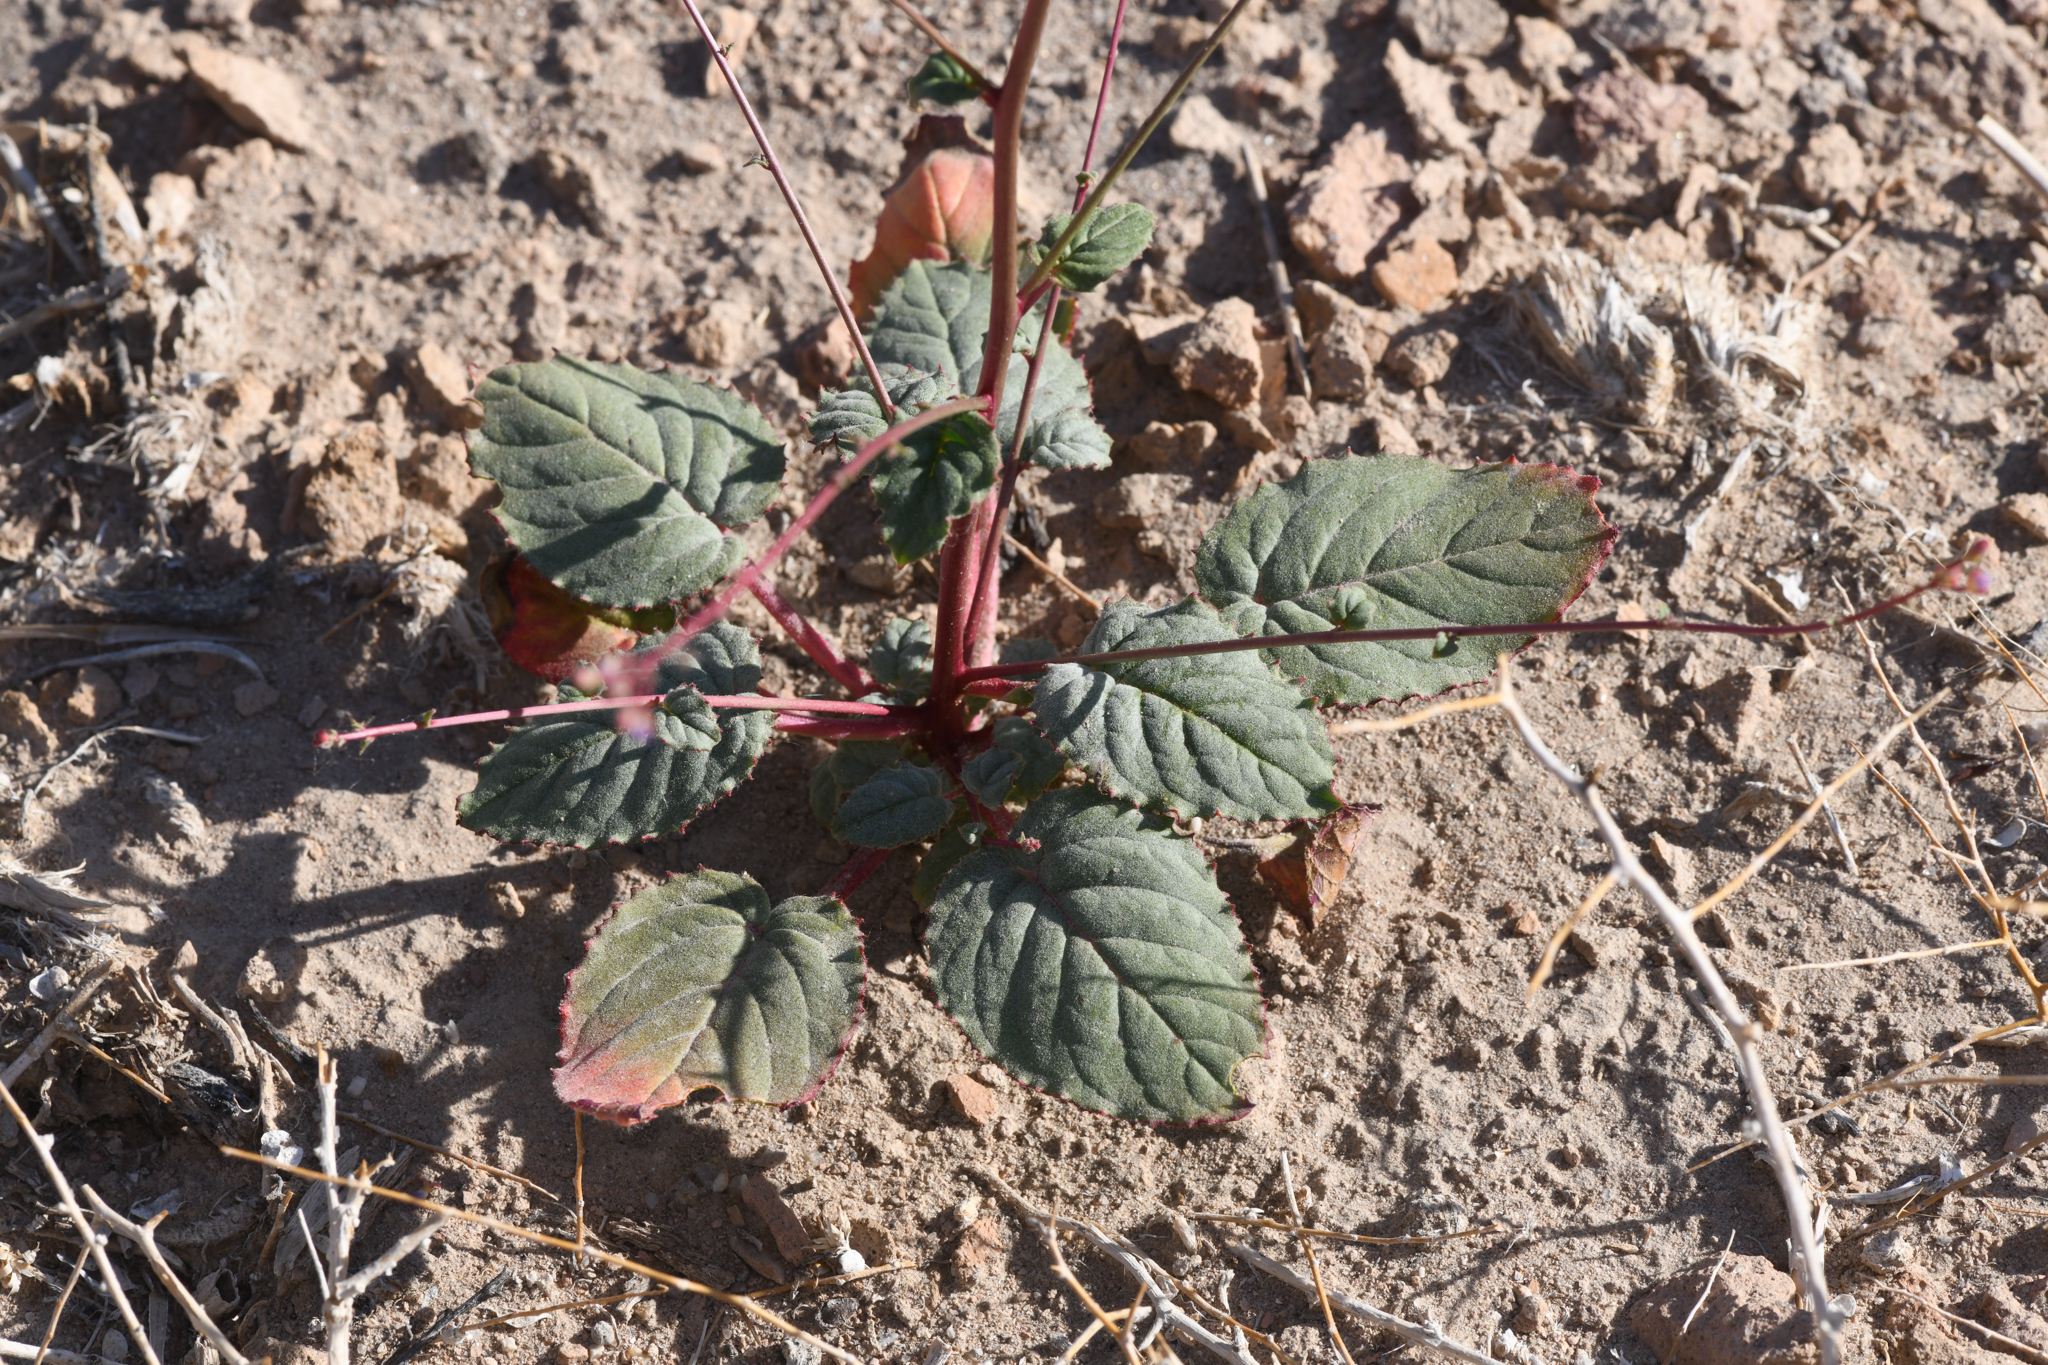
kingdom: Plantae
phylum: Tracheophyta
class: Magnoliopsida
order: Myrtales
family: Onagraceae
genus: Chylismia
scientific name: Chylismia heterochroma
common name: Shockley's evening primrose
